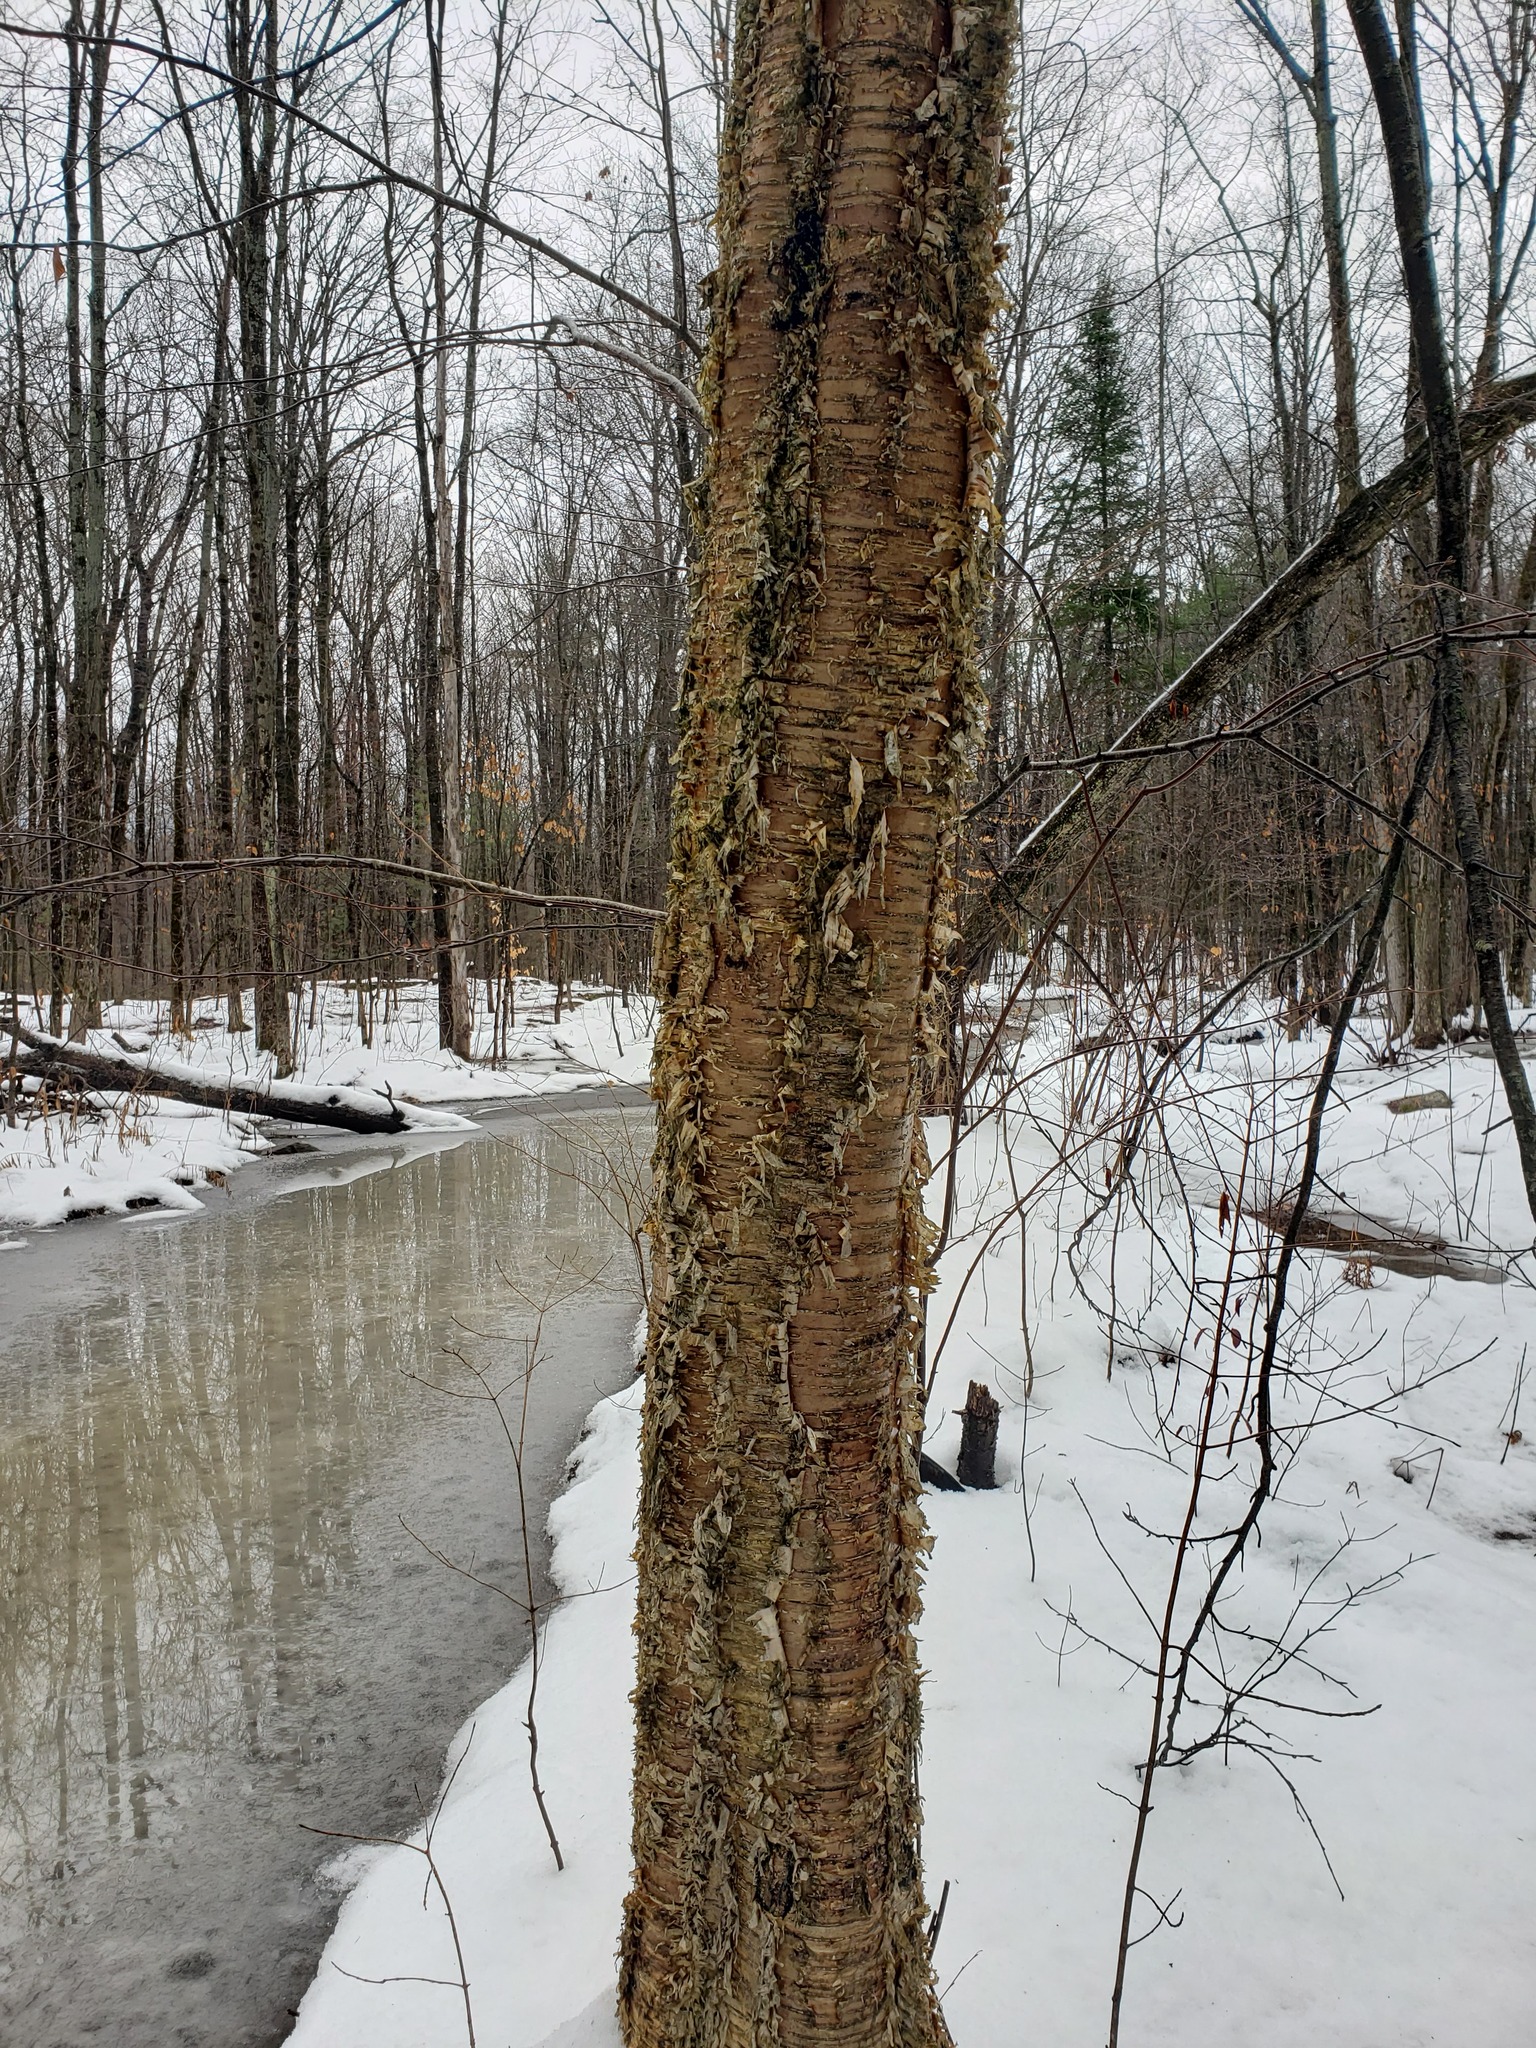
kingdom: Plantae
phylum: Tracheophyta
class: Magnoliopsida
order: Fagales
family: Betulaceae
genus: Betula
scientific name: Betula alleghaniensis
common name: Yellow birch
